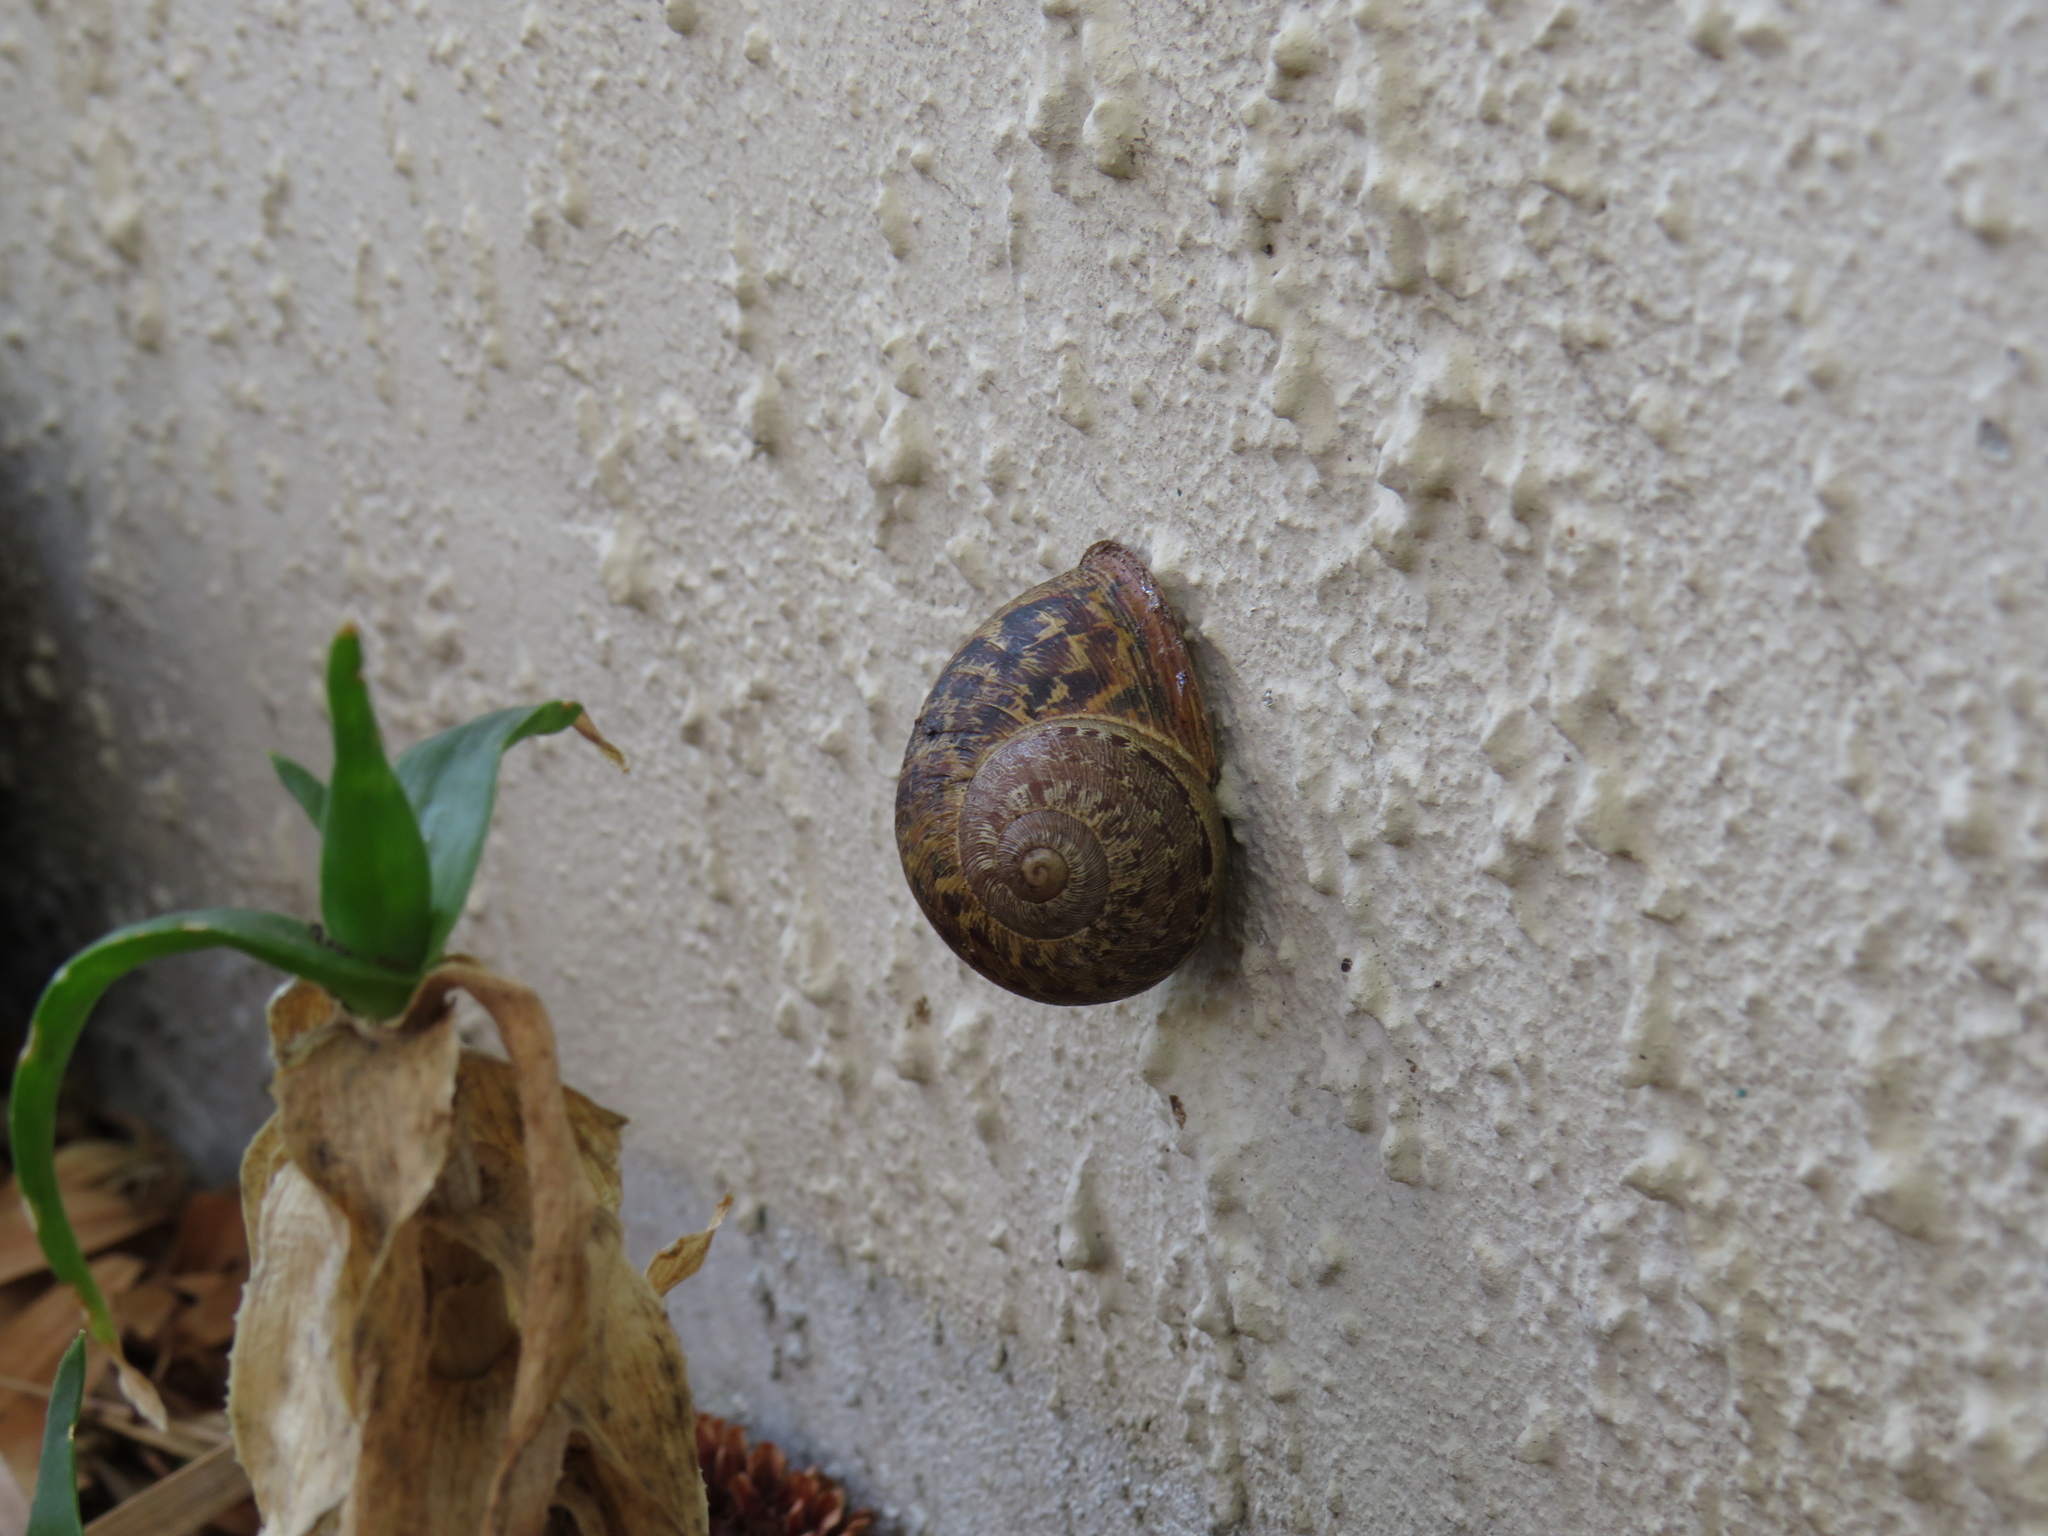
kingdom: Animalia
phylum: Mollusca
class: Gastropoda
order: Stylommatophora
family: Helicidae
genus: Cornu
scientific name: Cornu aspersum
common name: Brown garden snail
